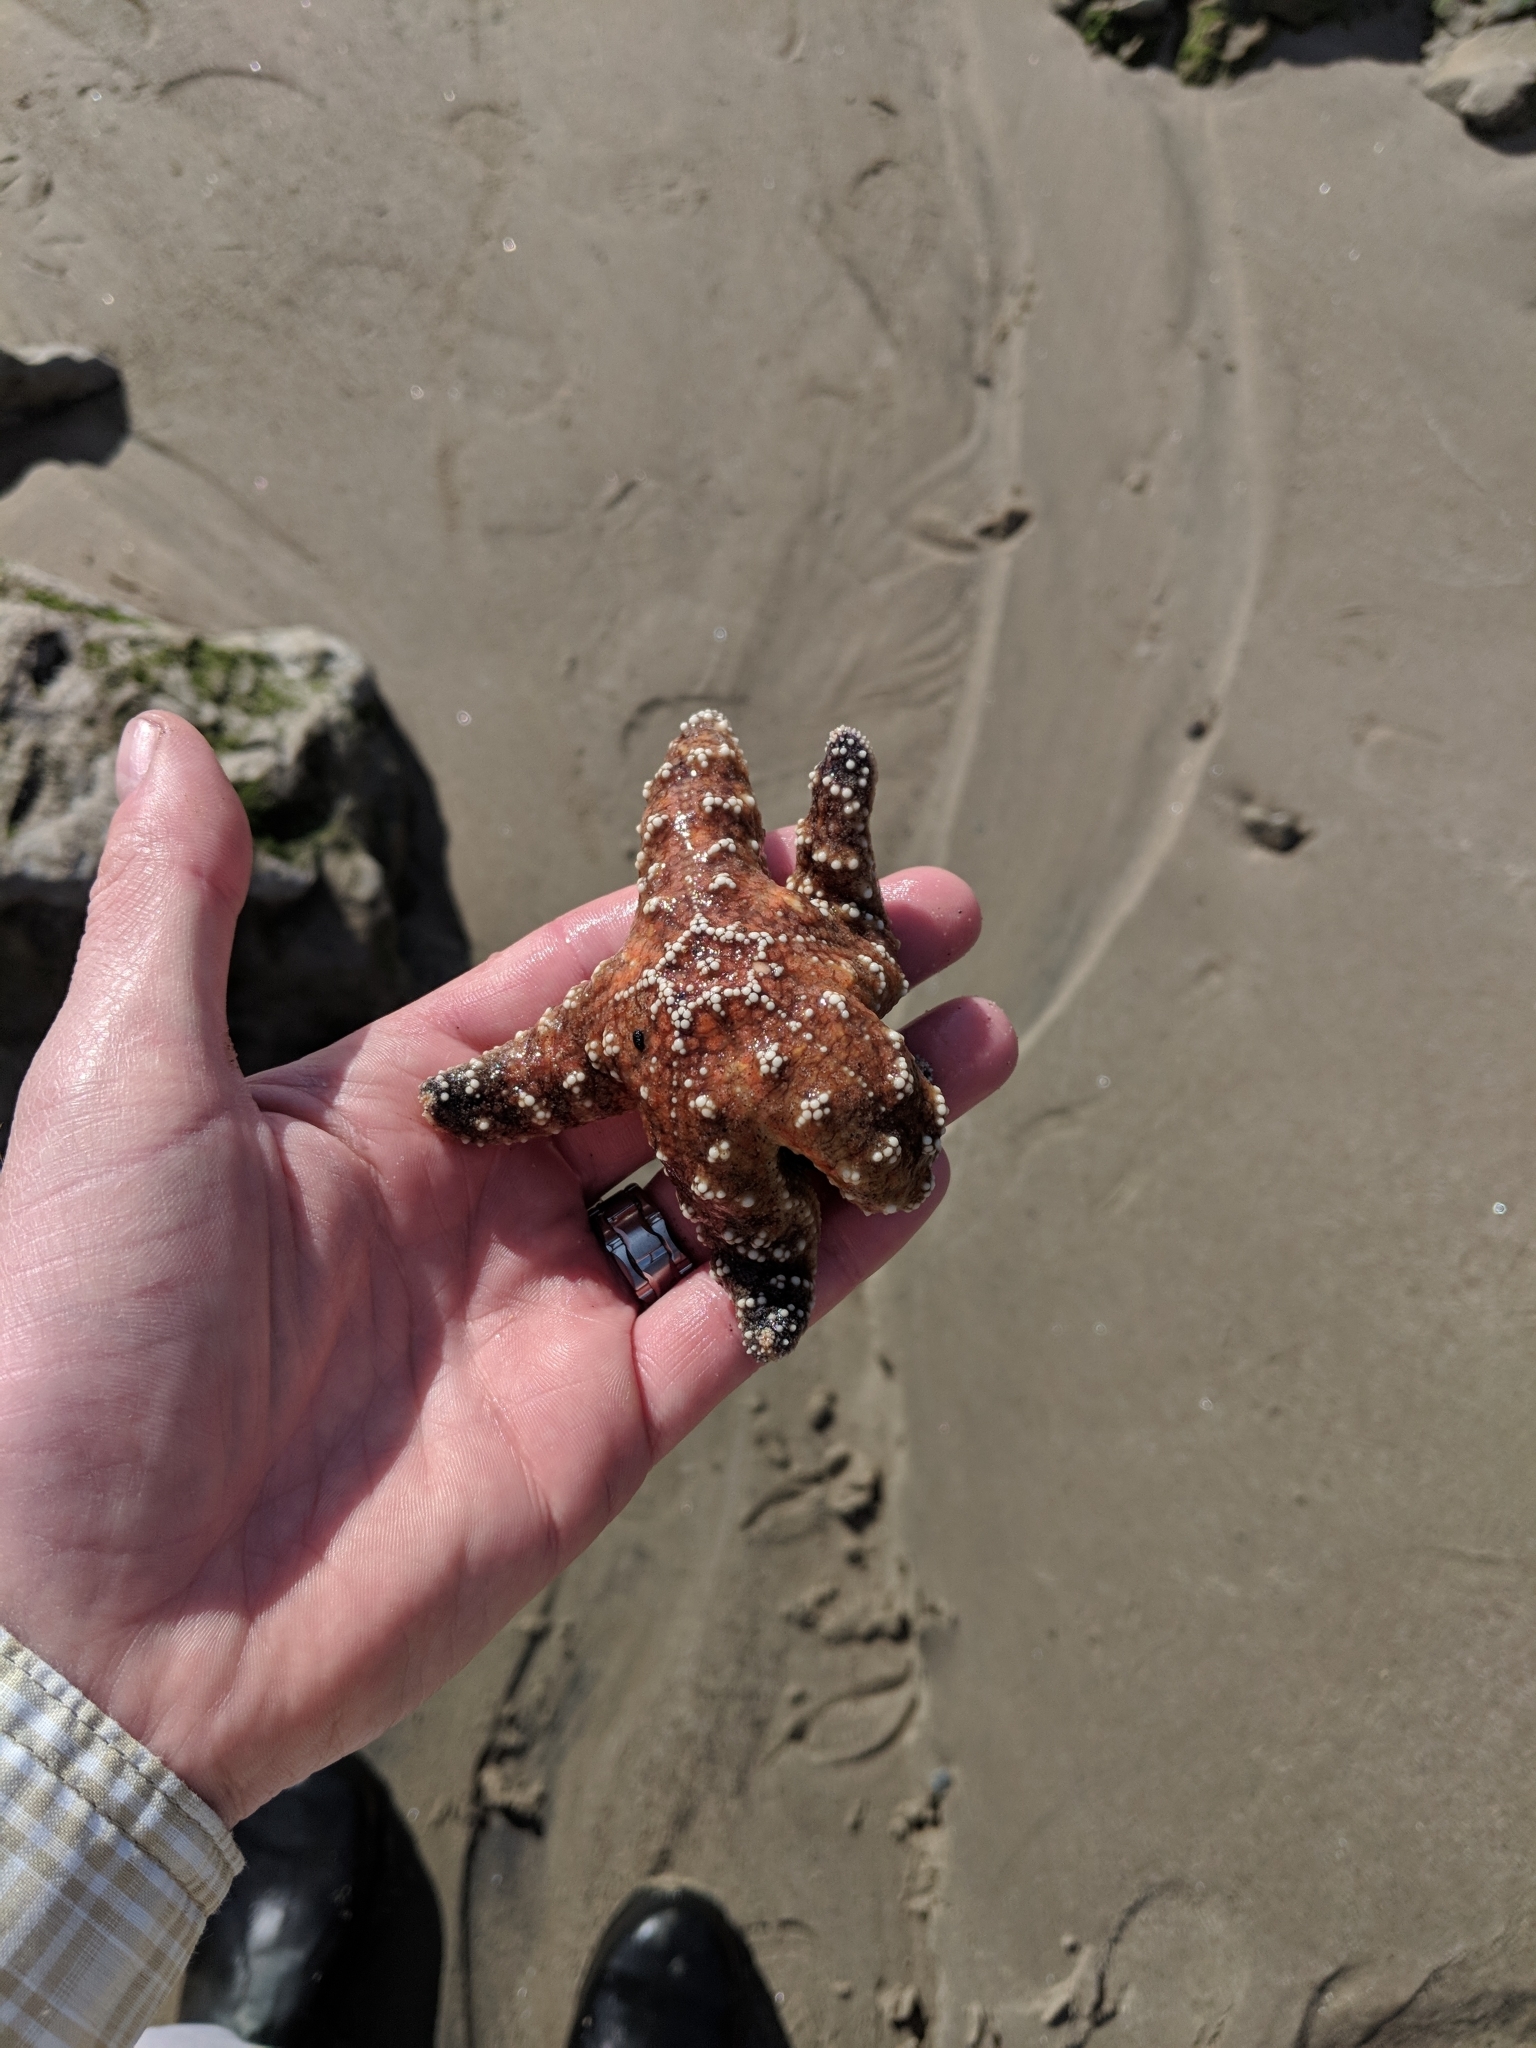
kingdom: Animalia
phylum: Echinodermata
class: Asteroidea
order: Forcipulatida
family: Asteriidae
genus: Pisaster
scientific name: Pisaster ochraceus
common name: Ochre stars
